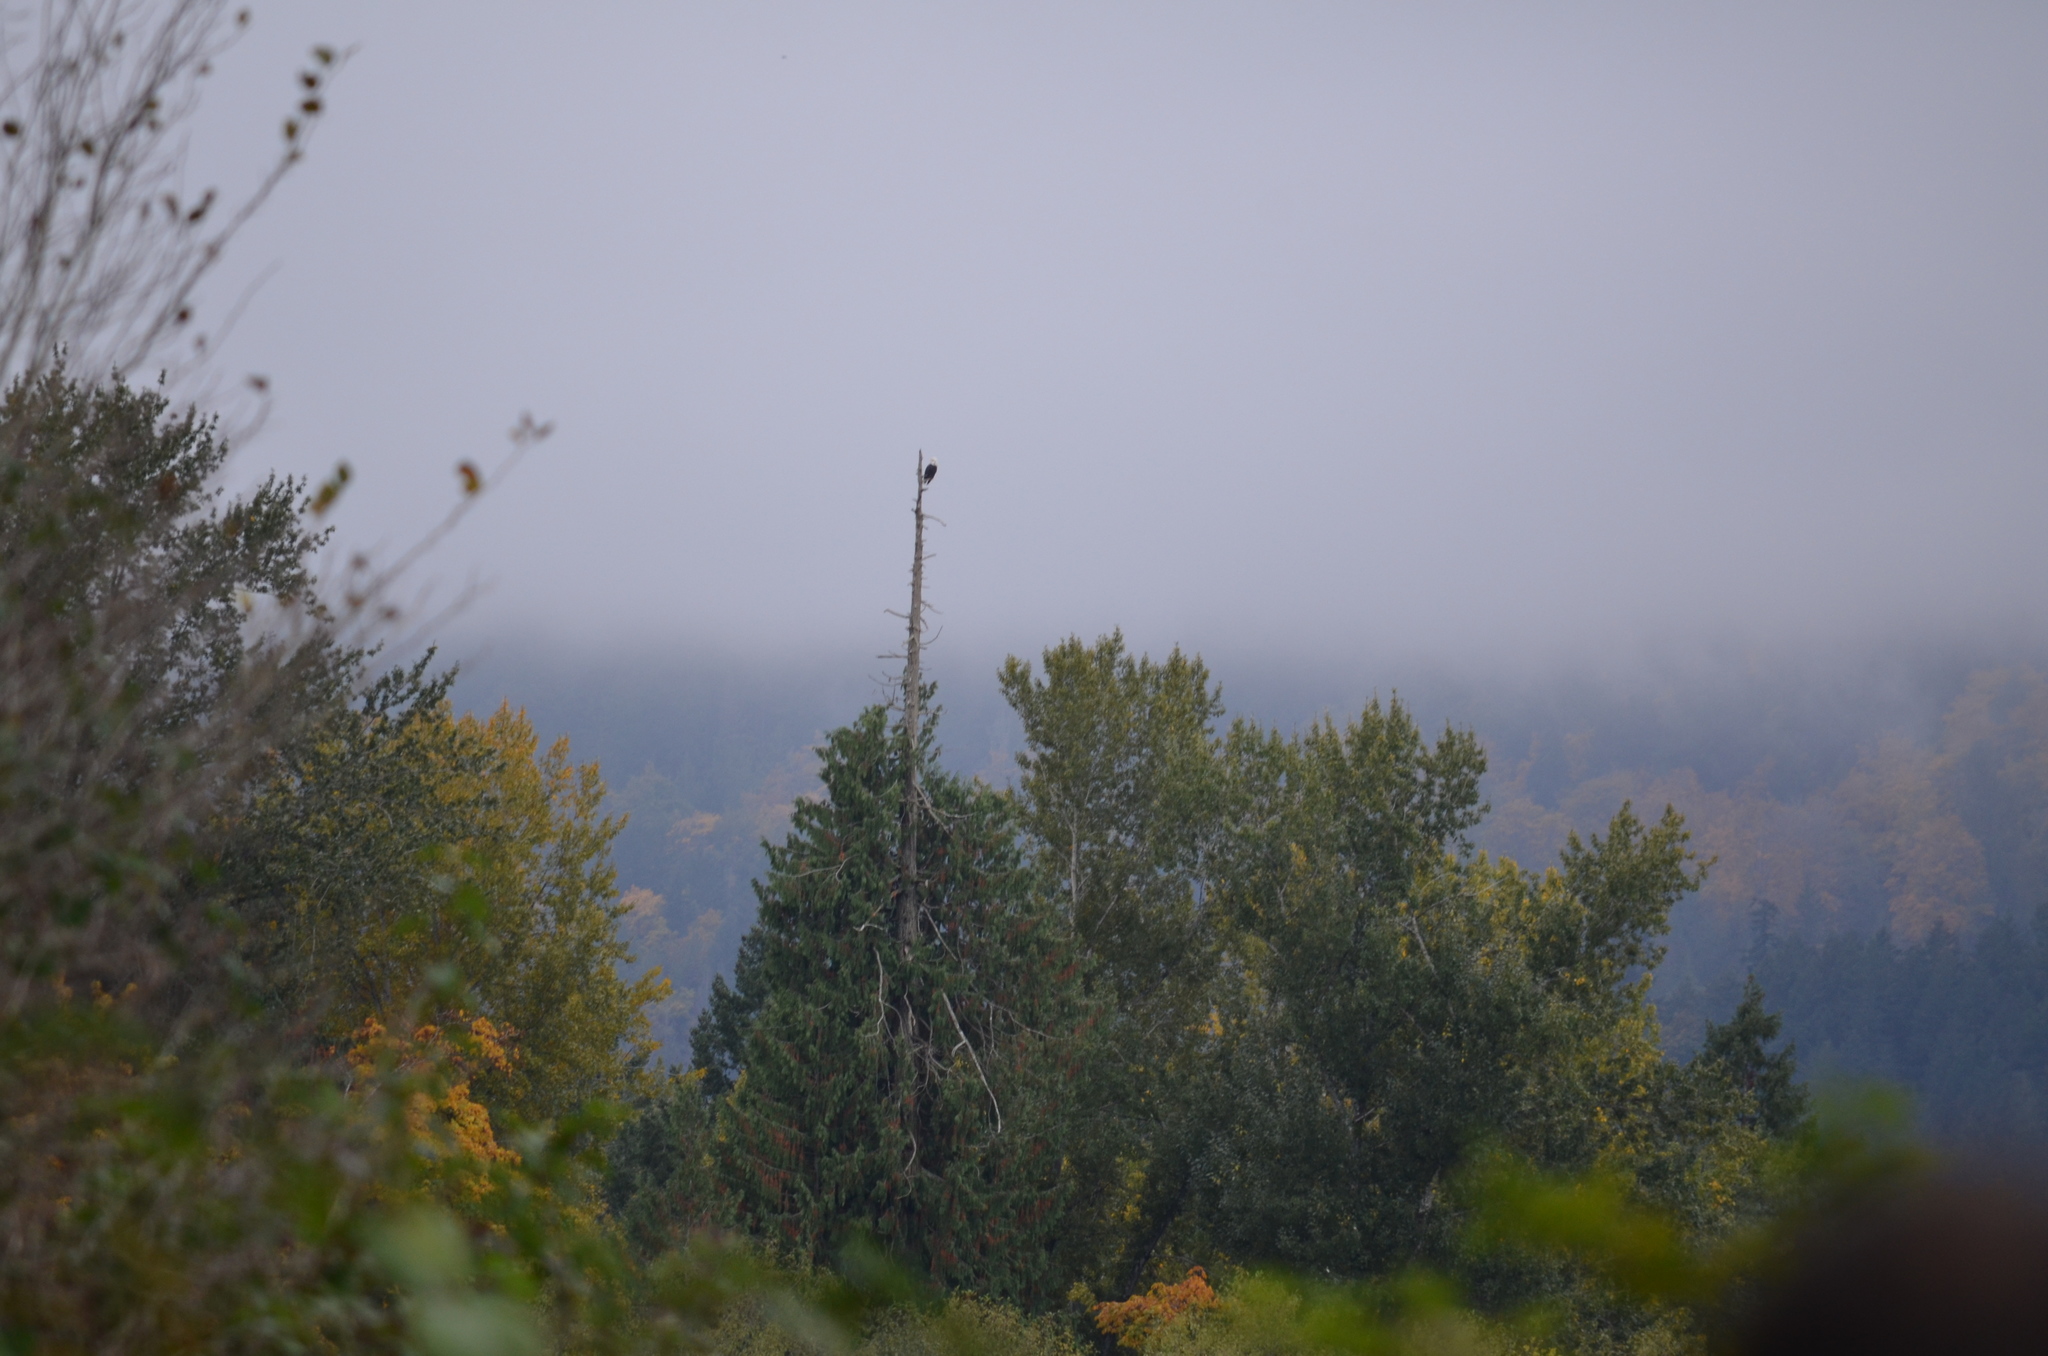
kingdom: Animalia
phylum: Chordata
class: Aves
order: Accipitriformes
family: Accipitridae
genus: Haliaeetus
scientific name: Haliaeetus leucocephalus
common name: Bald eagle
